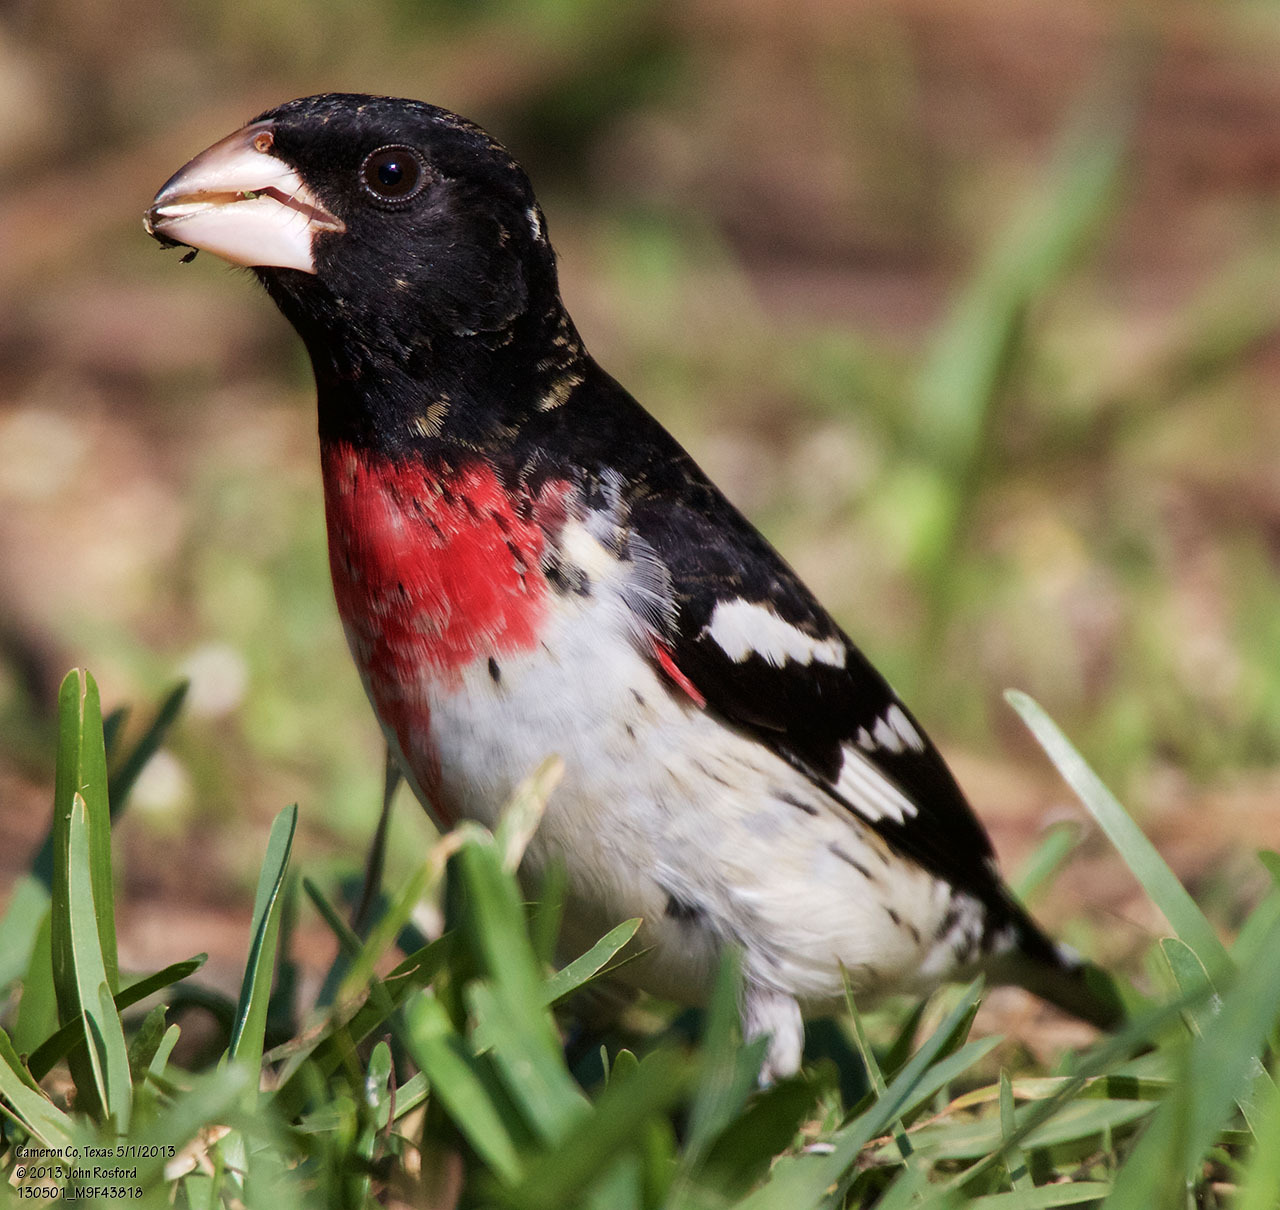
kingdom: Animalia
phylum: Chordata
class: Aves
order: Passeriformes
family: Cardinalidae
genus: Pheucticus
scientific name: Pheucticus ludovicianus
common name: Rose-breasted grosbeak
